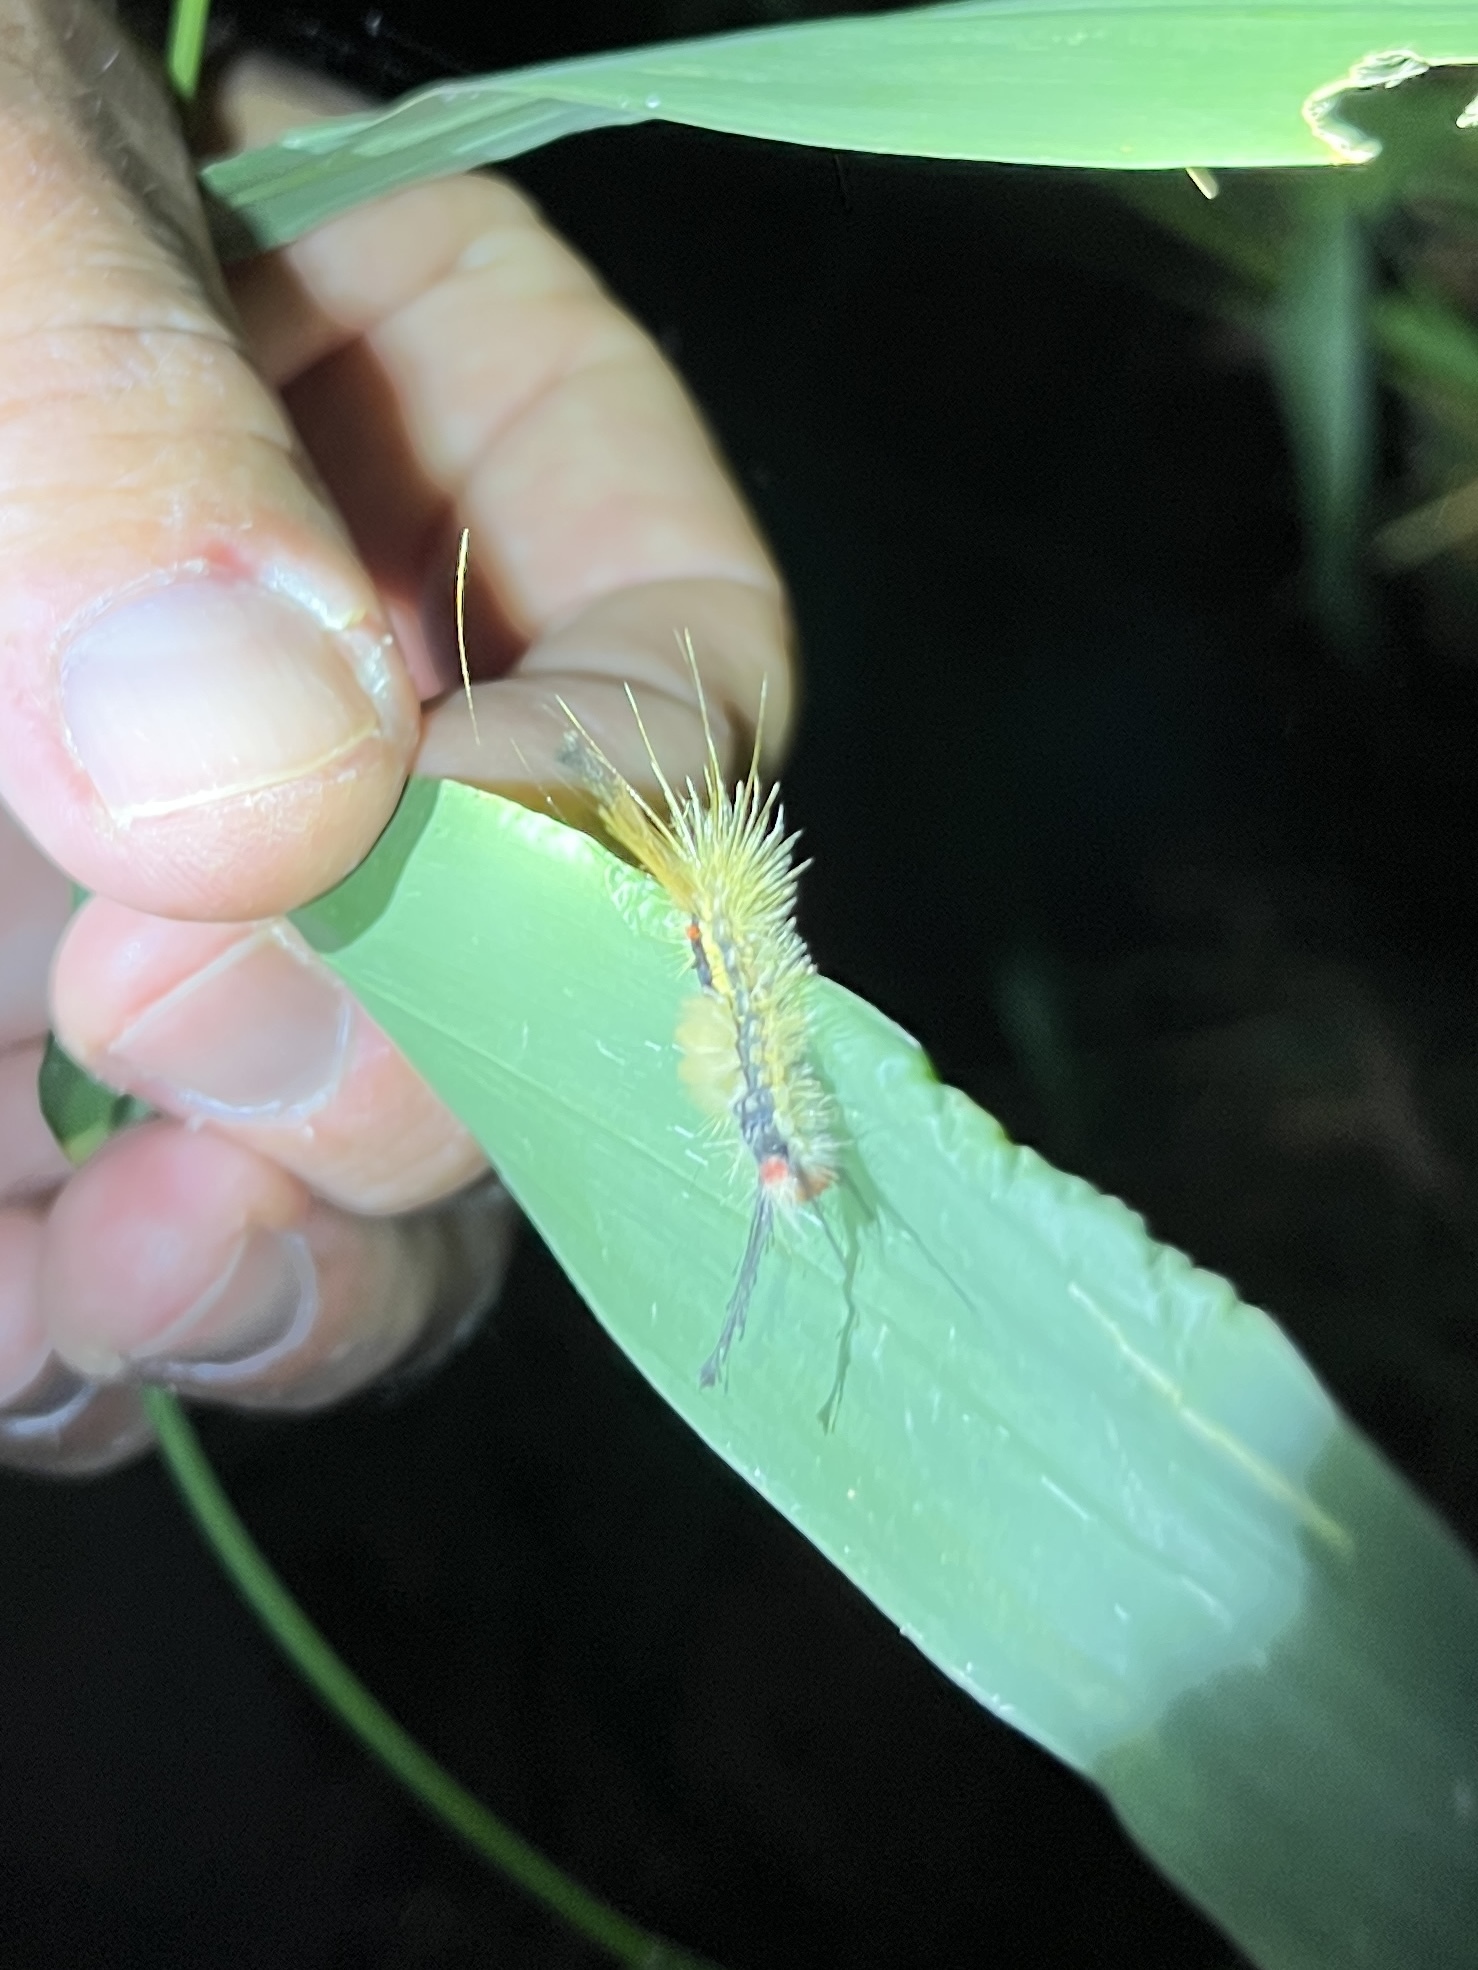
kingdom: Animalia
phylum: Arthropoda
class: Insecta
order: Lepidoptera
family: Erebidae
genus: Orgyia
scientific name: Orgyia leucostigma
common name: White-marked tussock moth
